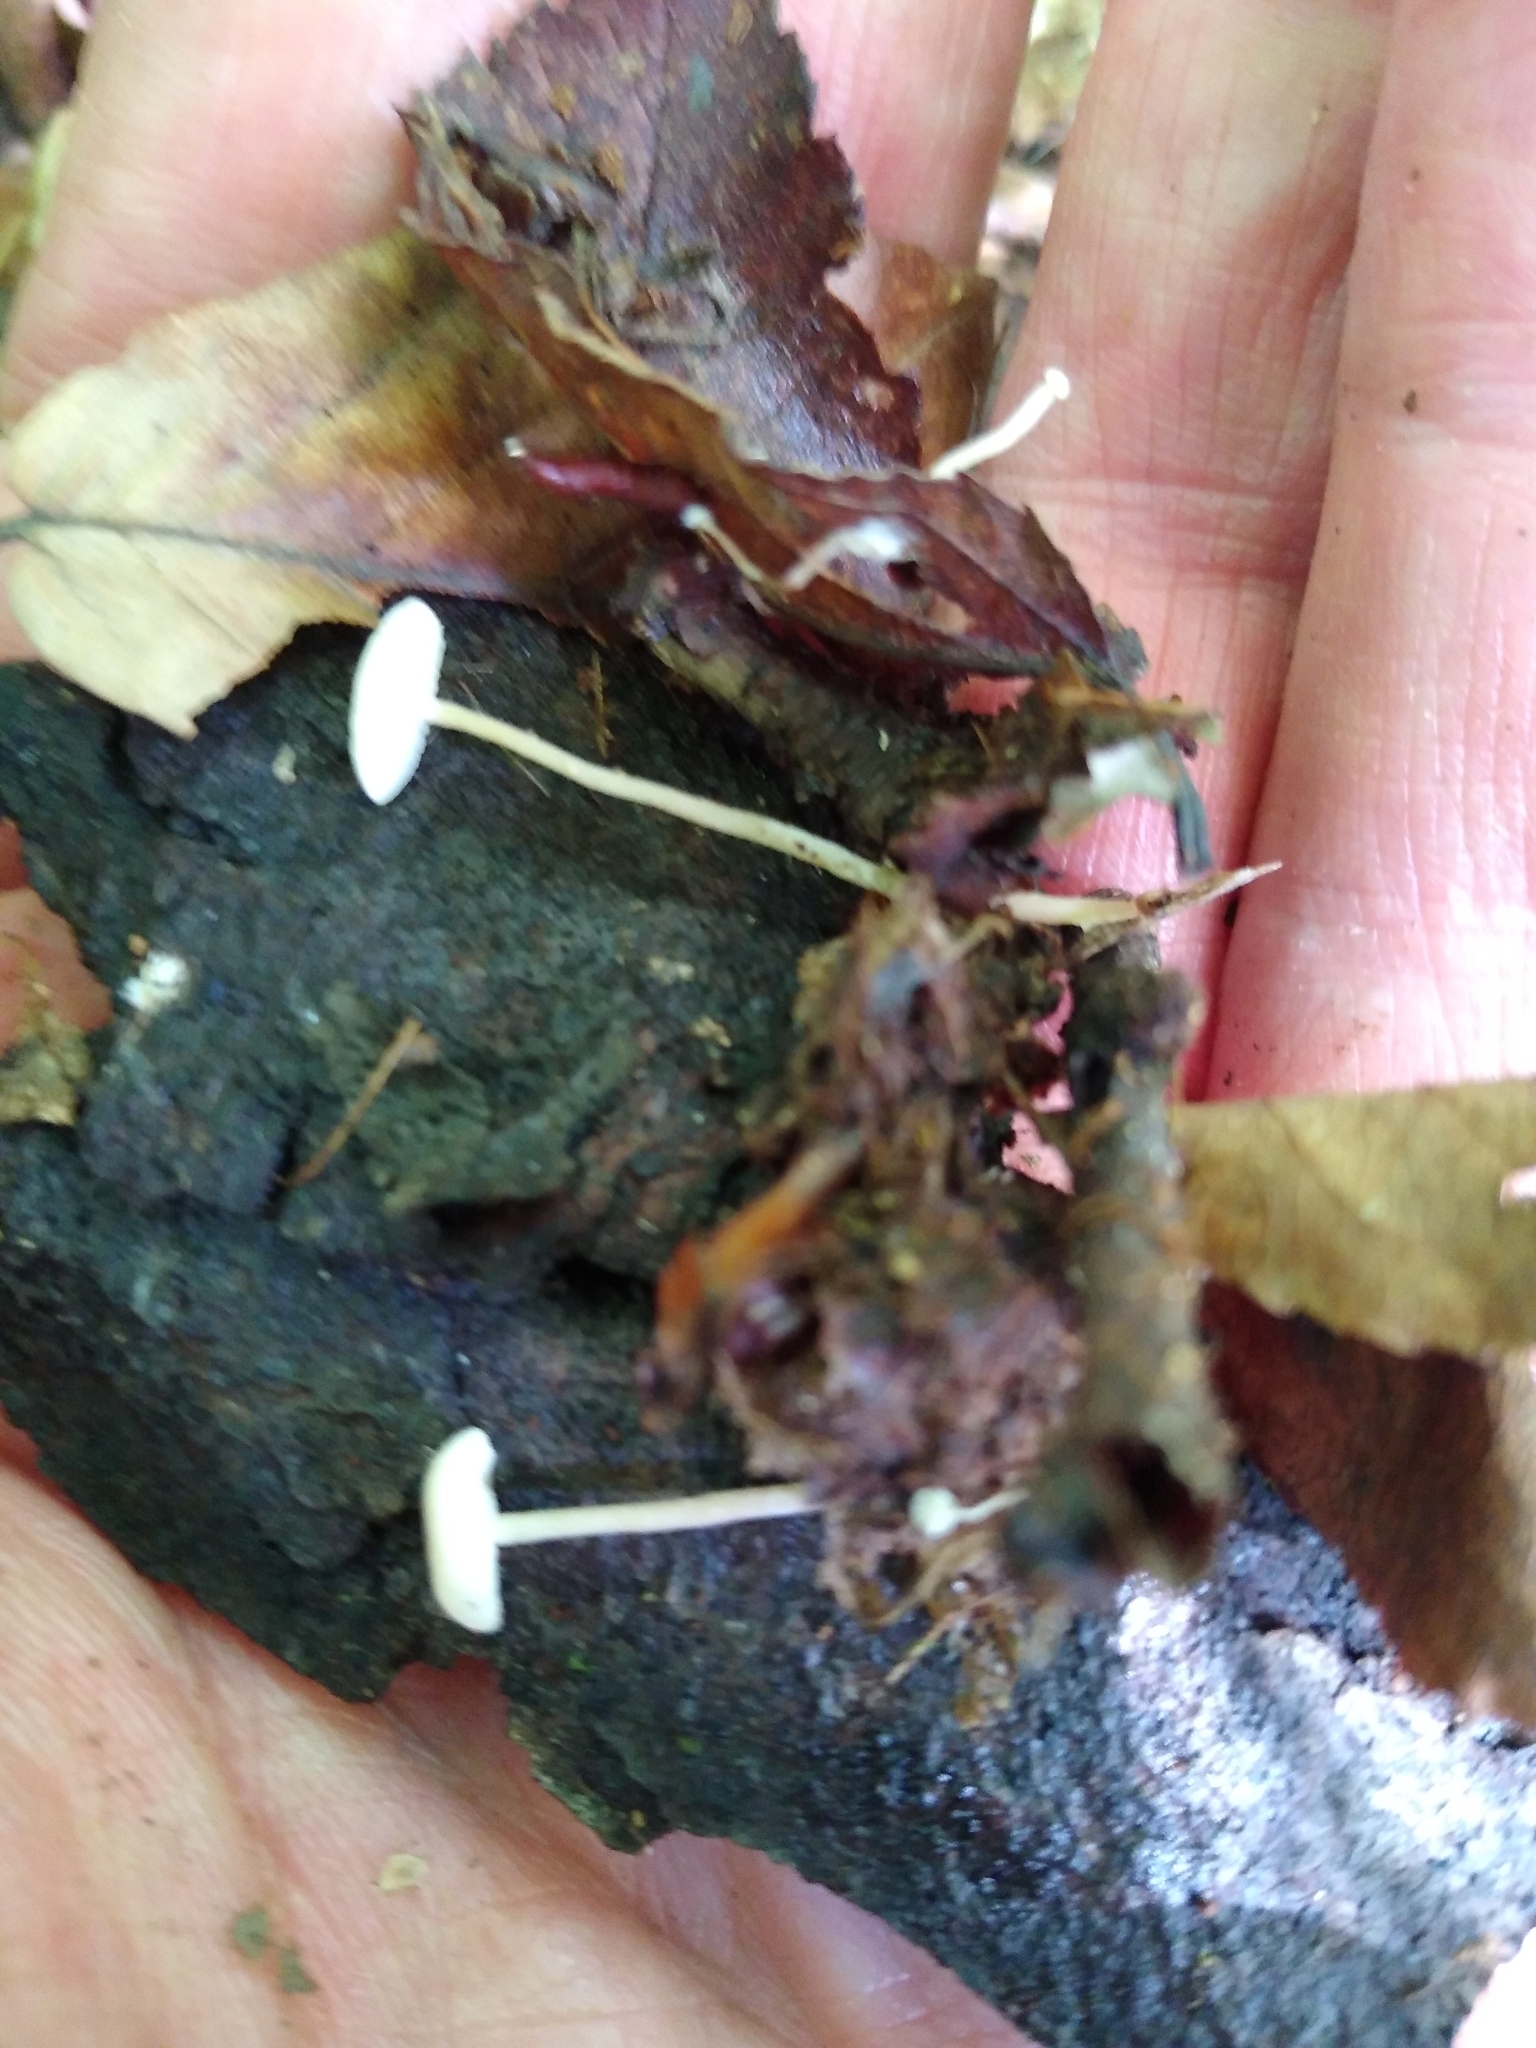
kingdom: Fungi
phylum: Basidiomycota
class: Agaricomycetes
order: Agaricales
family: Tricholomataceae
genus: Collybia
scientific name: Collybia tuberosa
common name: Lentil shanklet
